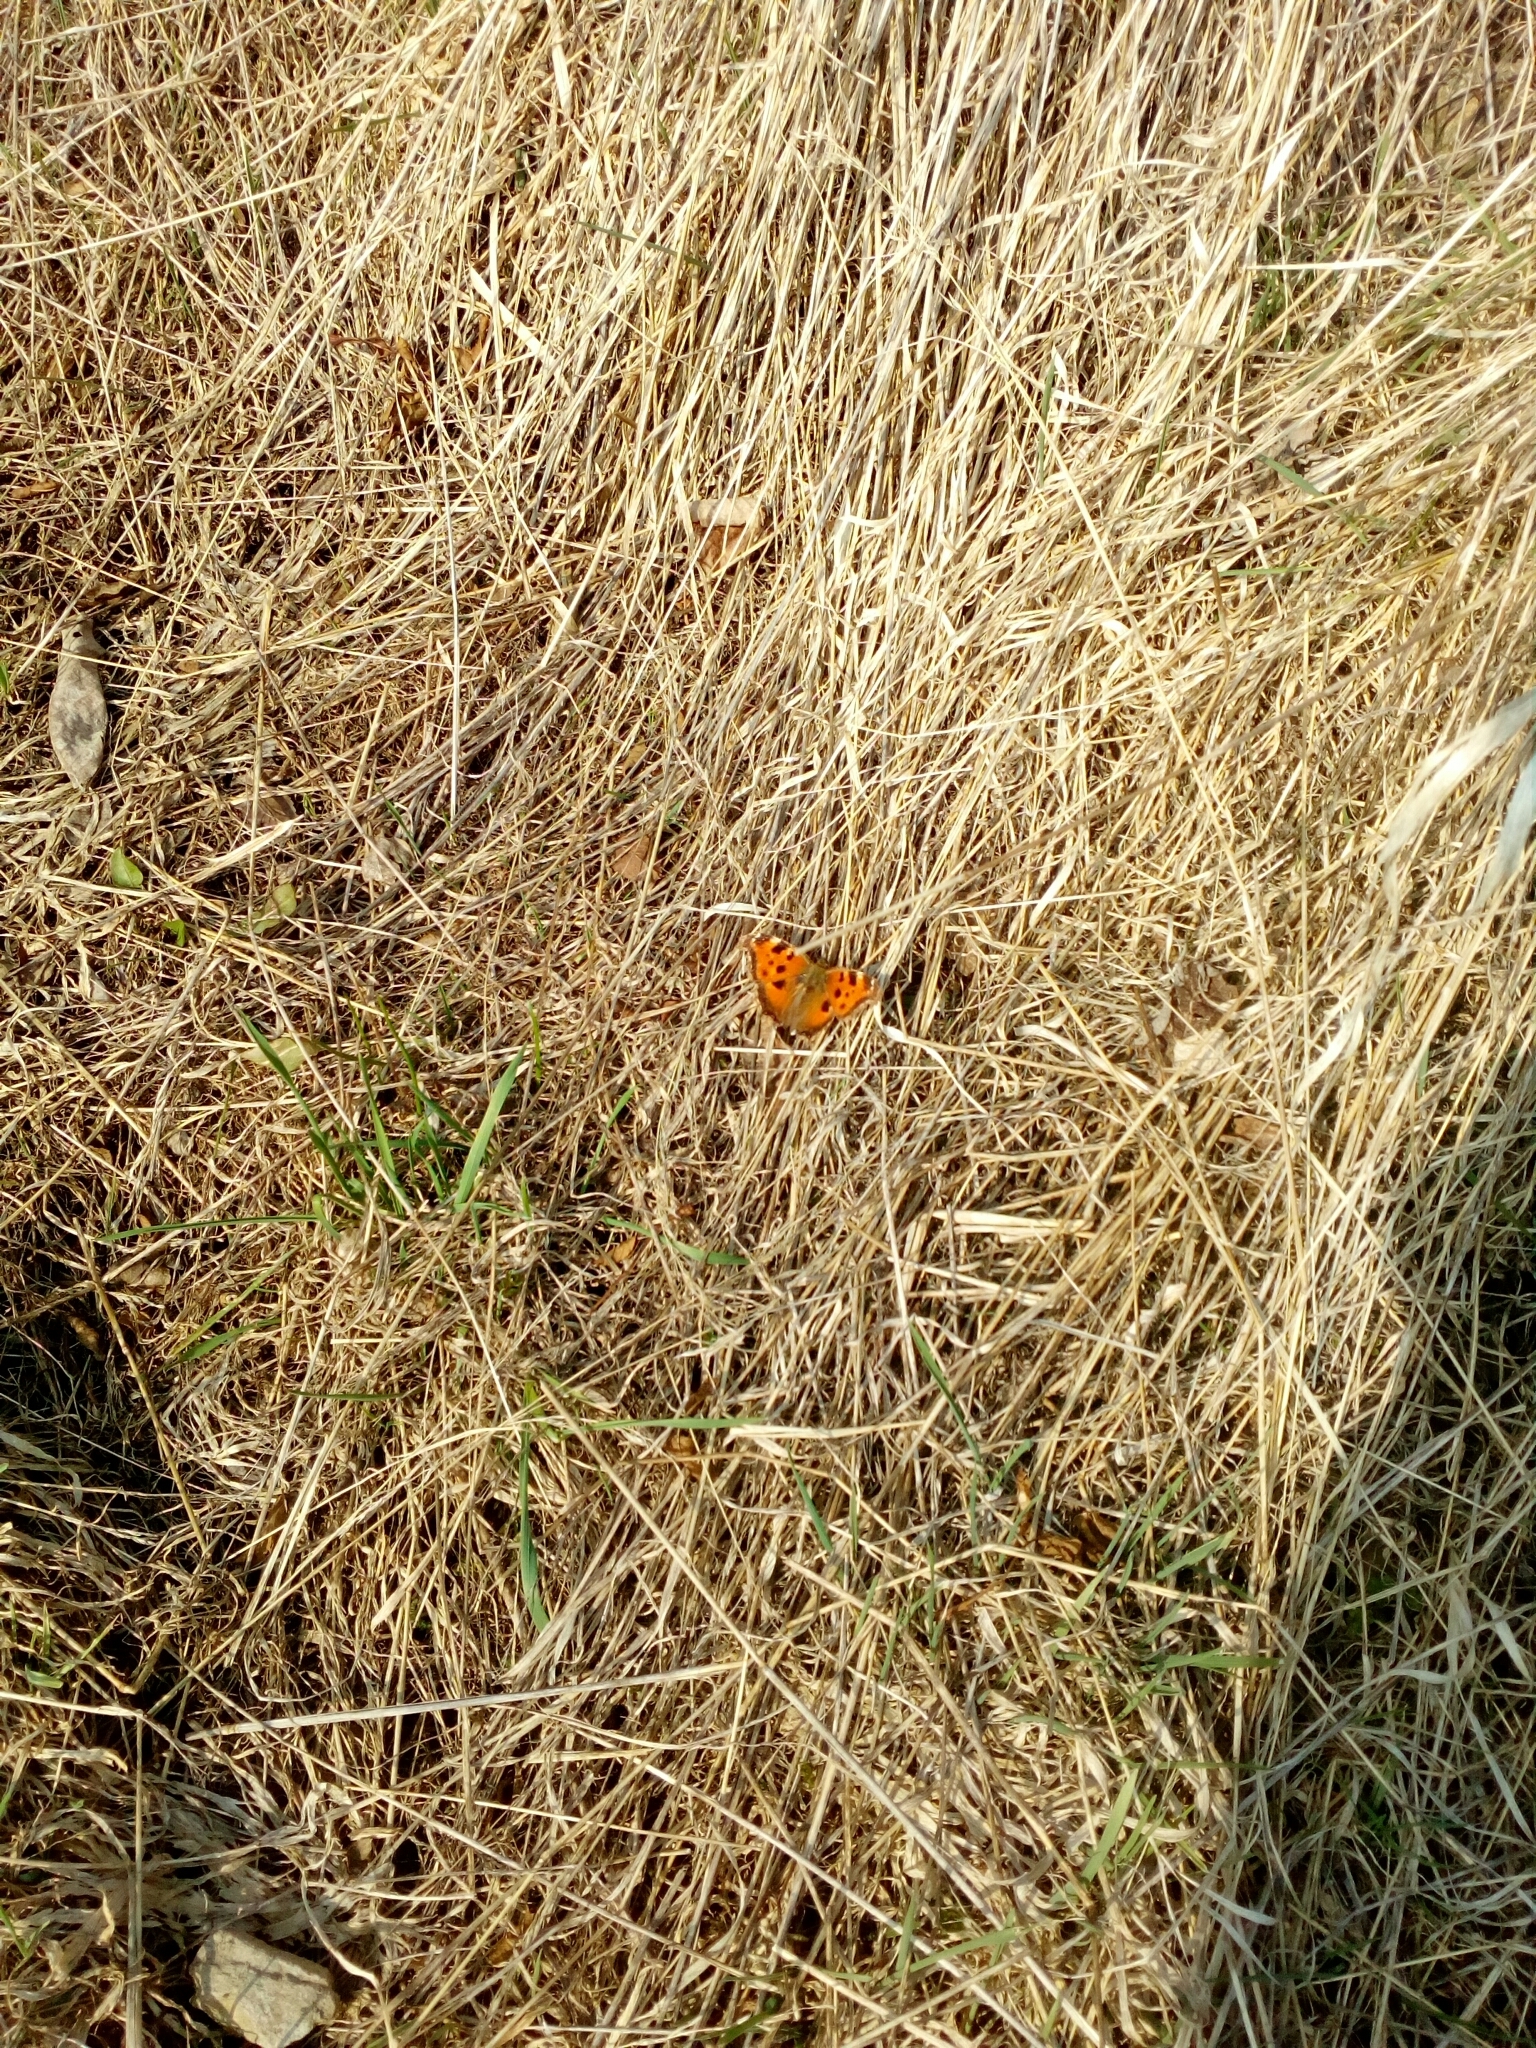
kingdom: Animalia
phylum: Arthropoda
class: Insecta
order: Lepidoptera
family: Nymphalidae
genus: Nymphalis
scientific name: Nymphalis xanthomelas
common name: Scarce tortoiseshell
